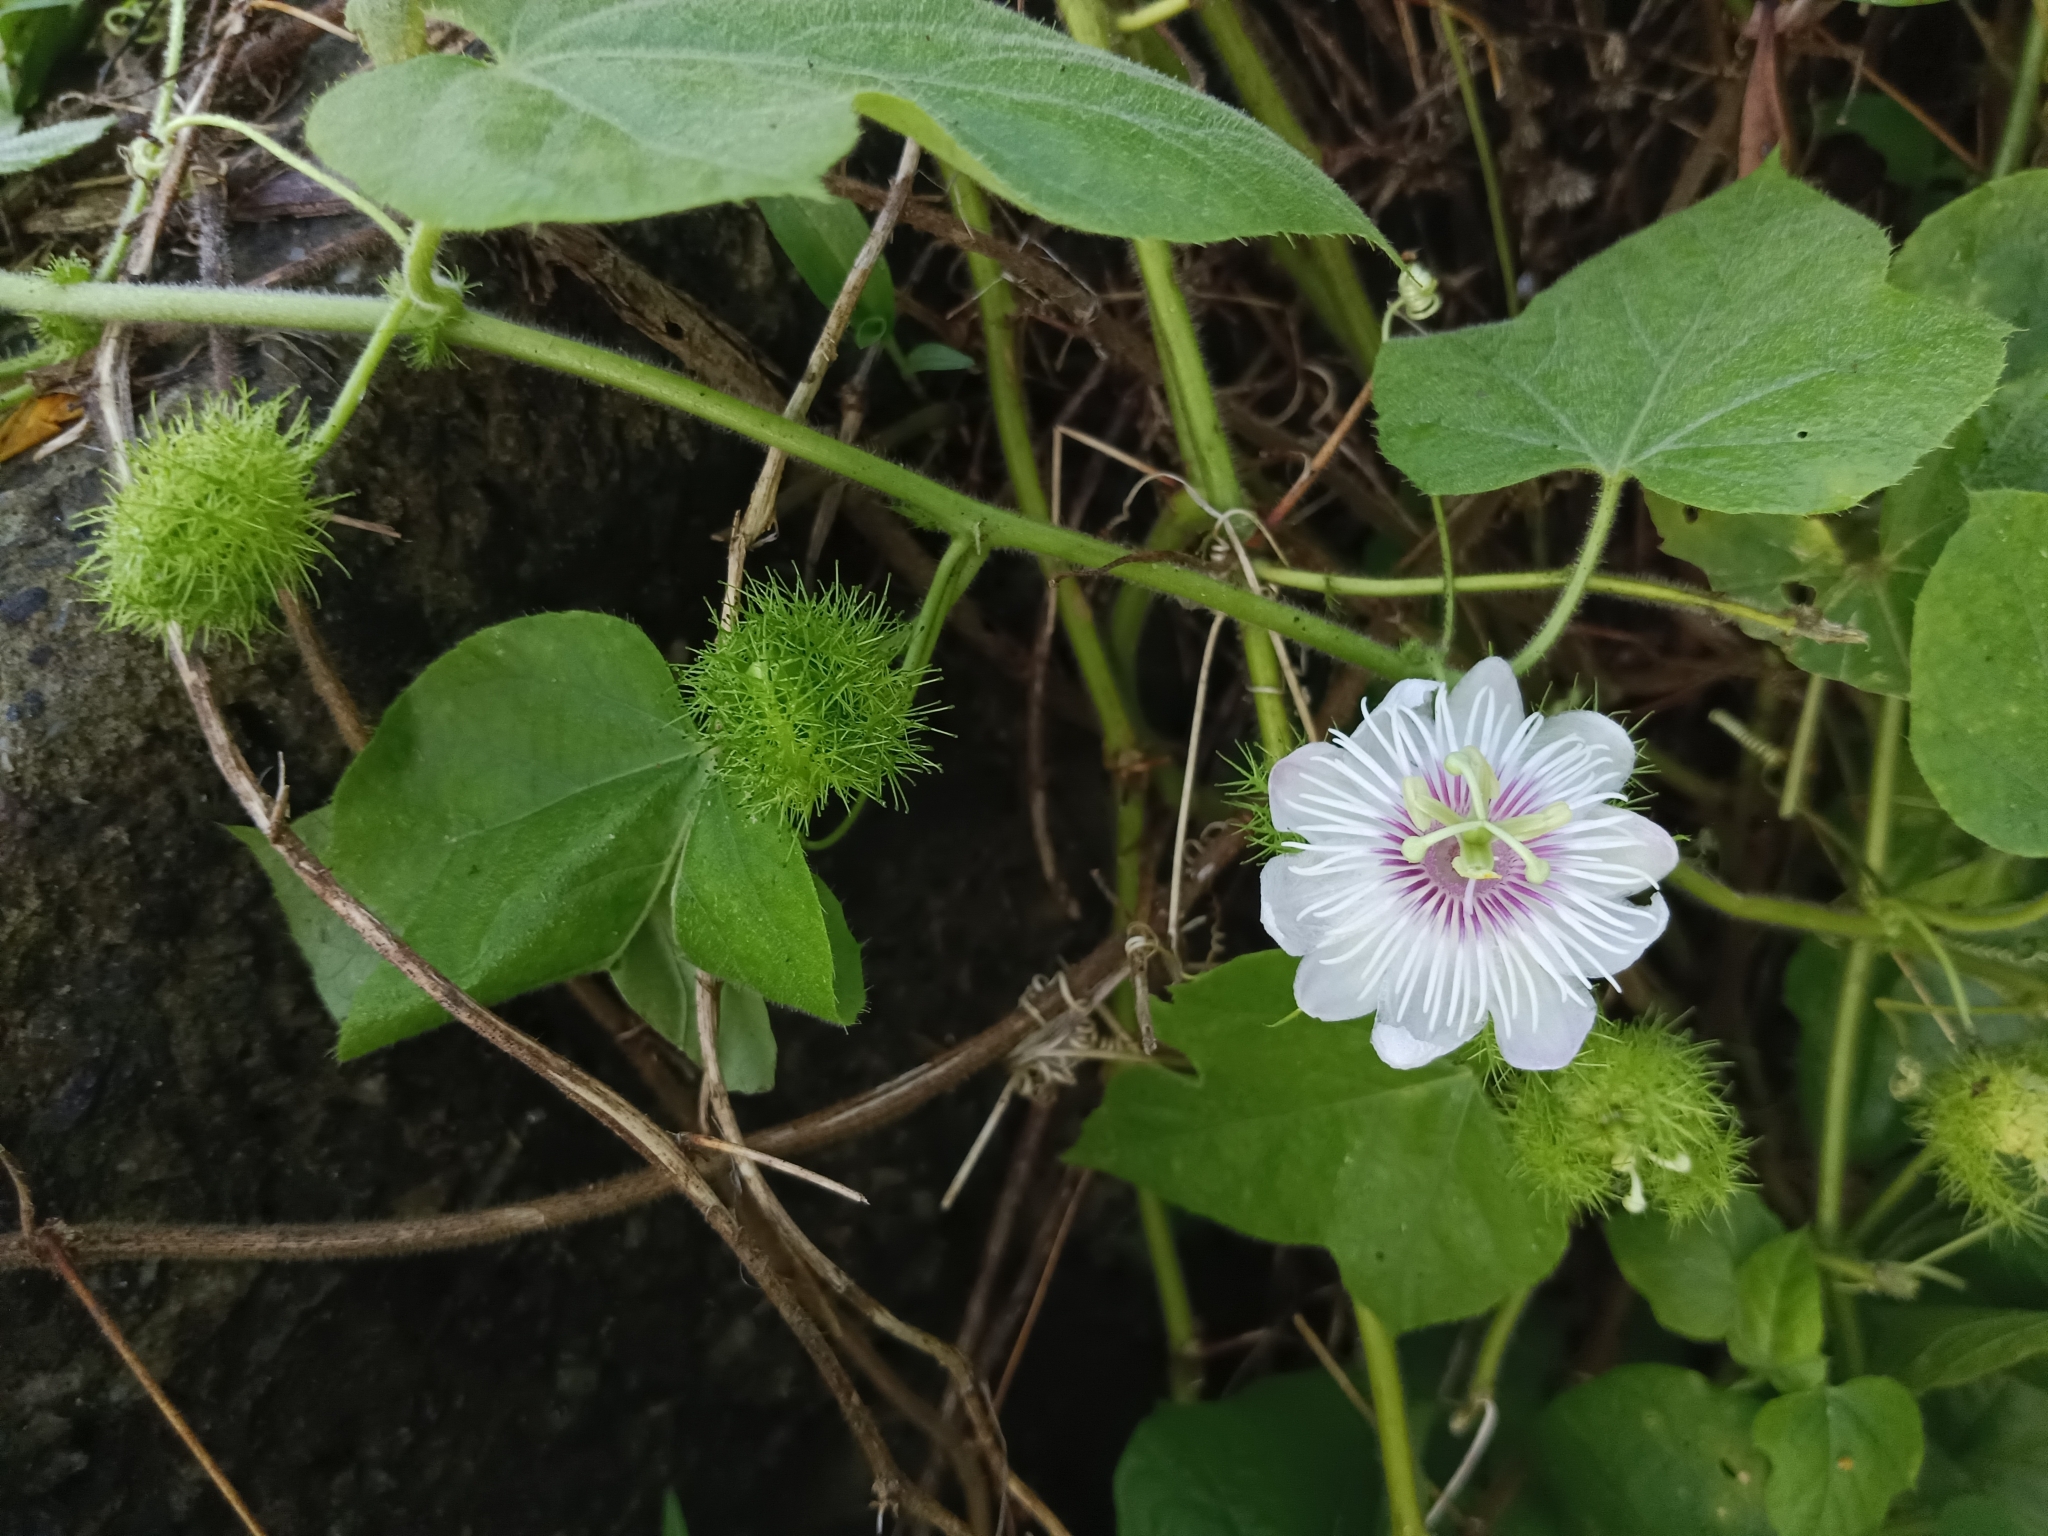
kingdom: Plantae
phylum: Tracheophyta
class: Magnoliopsida
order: Malpighiales
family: Passifloraceae
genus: Passiflora
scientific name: Passiflora vesicaria
